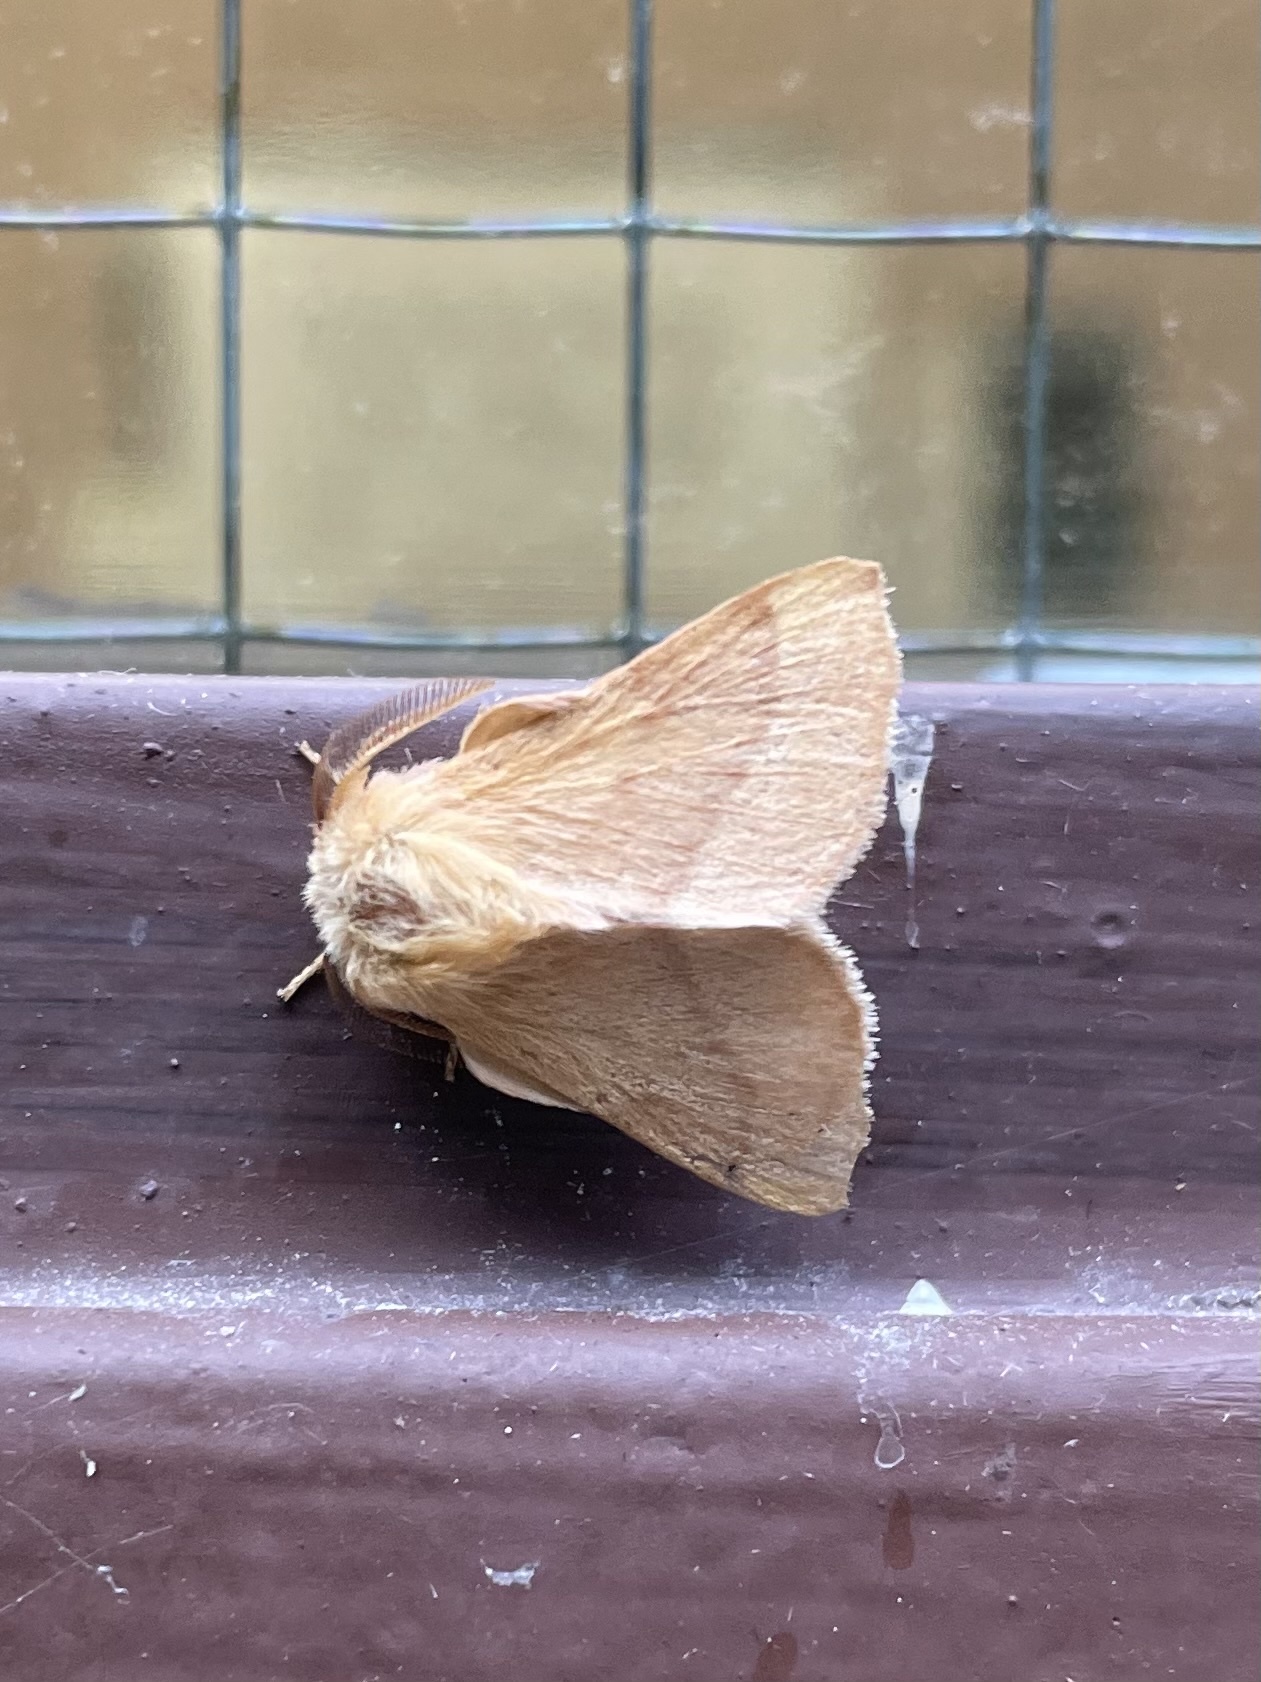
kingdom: Animalia
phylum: Arthropoda
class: Insecta
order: Lepidoptera
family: Lasiocampidae
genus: Malacosoma
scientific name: Malacosoma disstria
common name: Forest tent caterpillar
